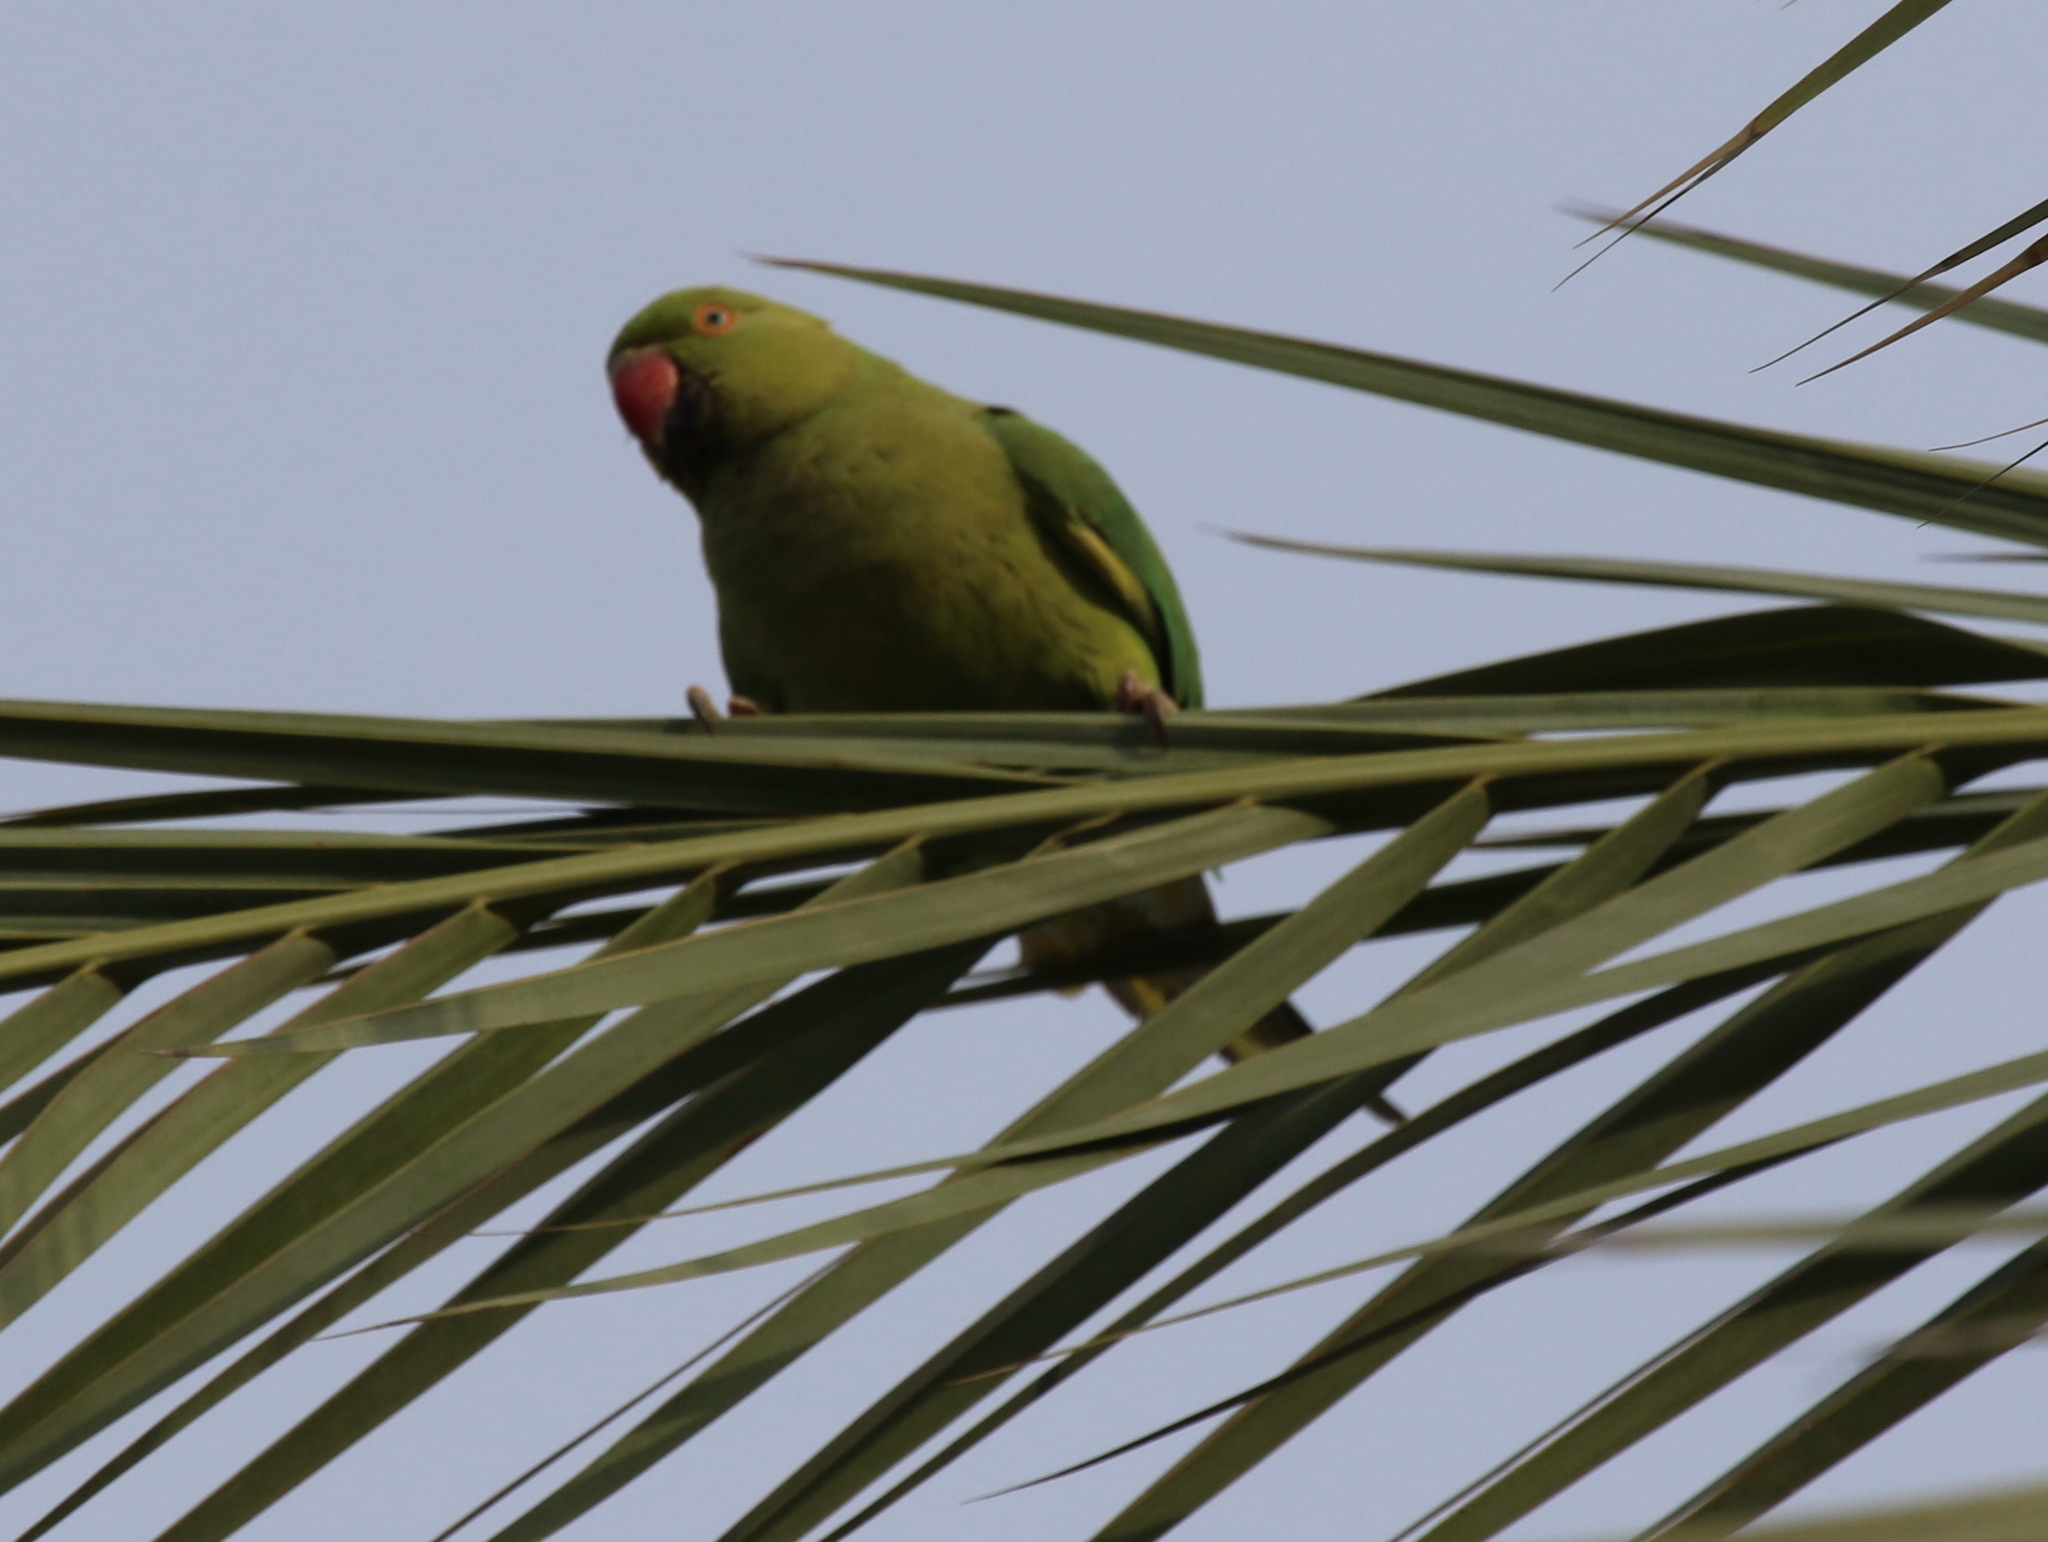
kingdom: Animalia
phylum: Chordata
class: Aves
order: Psittaciformes
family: Psittacidae
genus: Psittacula
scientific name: Psittacula krameri
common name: Rose-ringed parakeet
